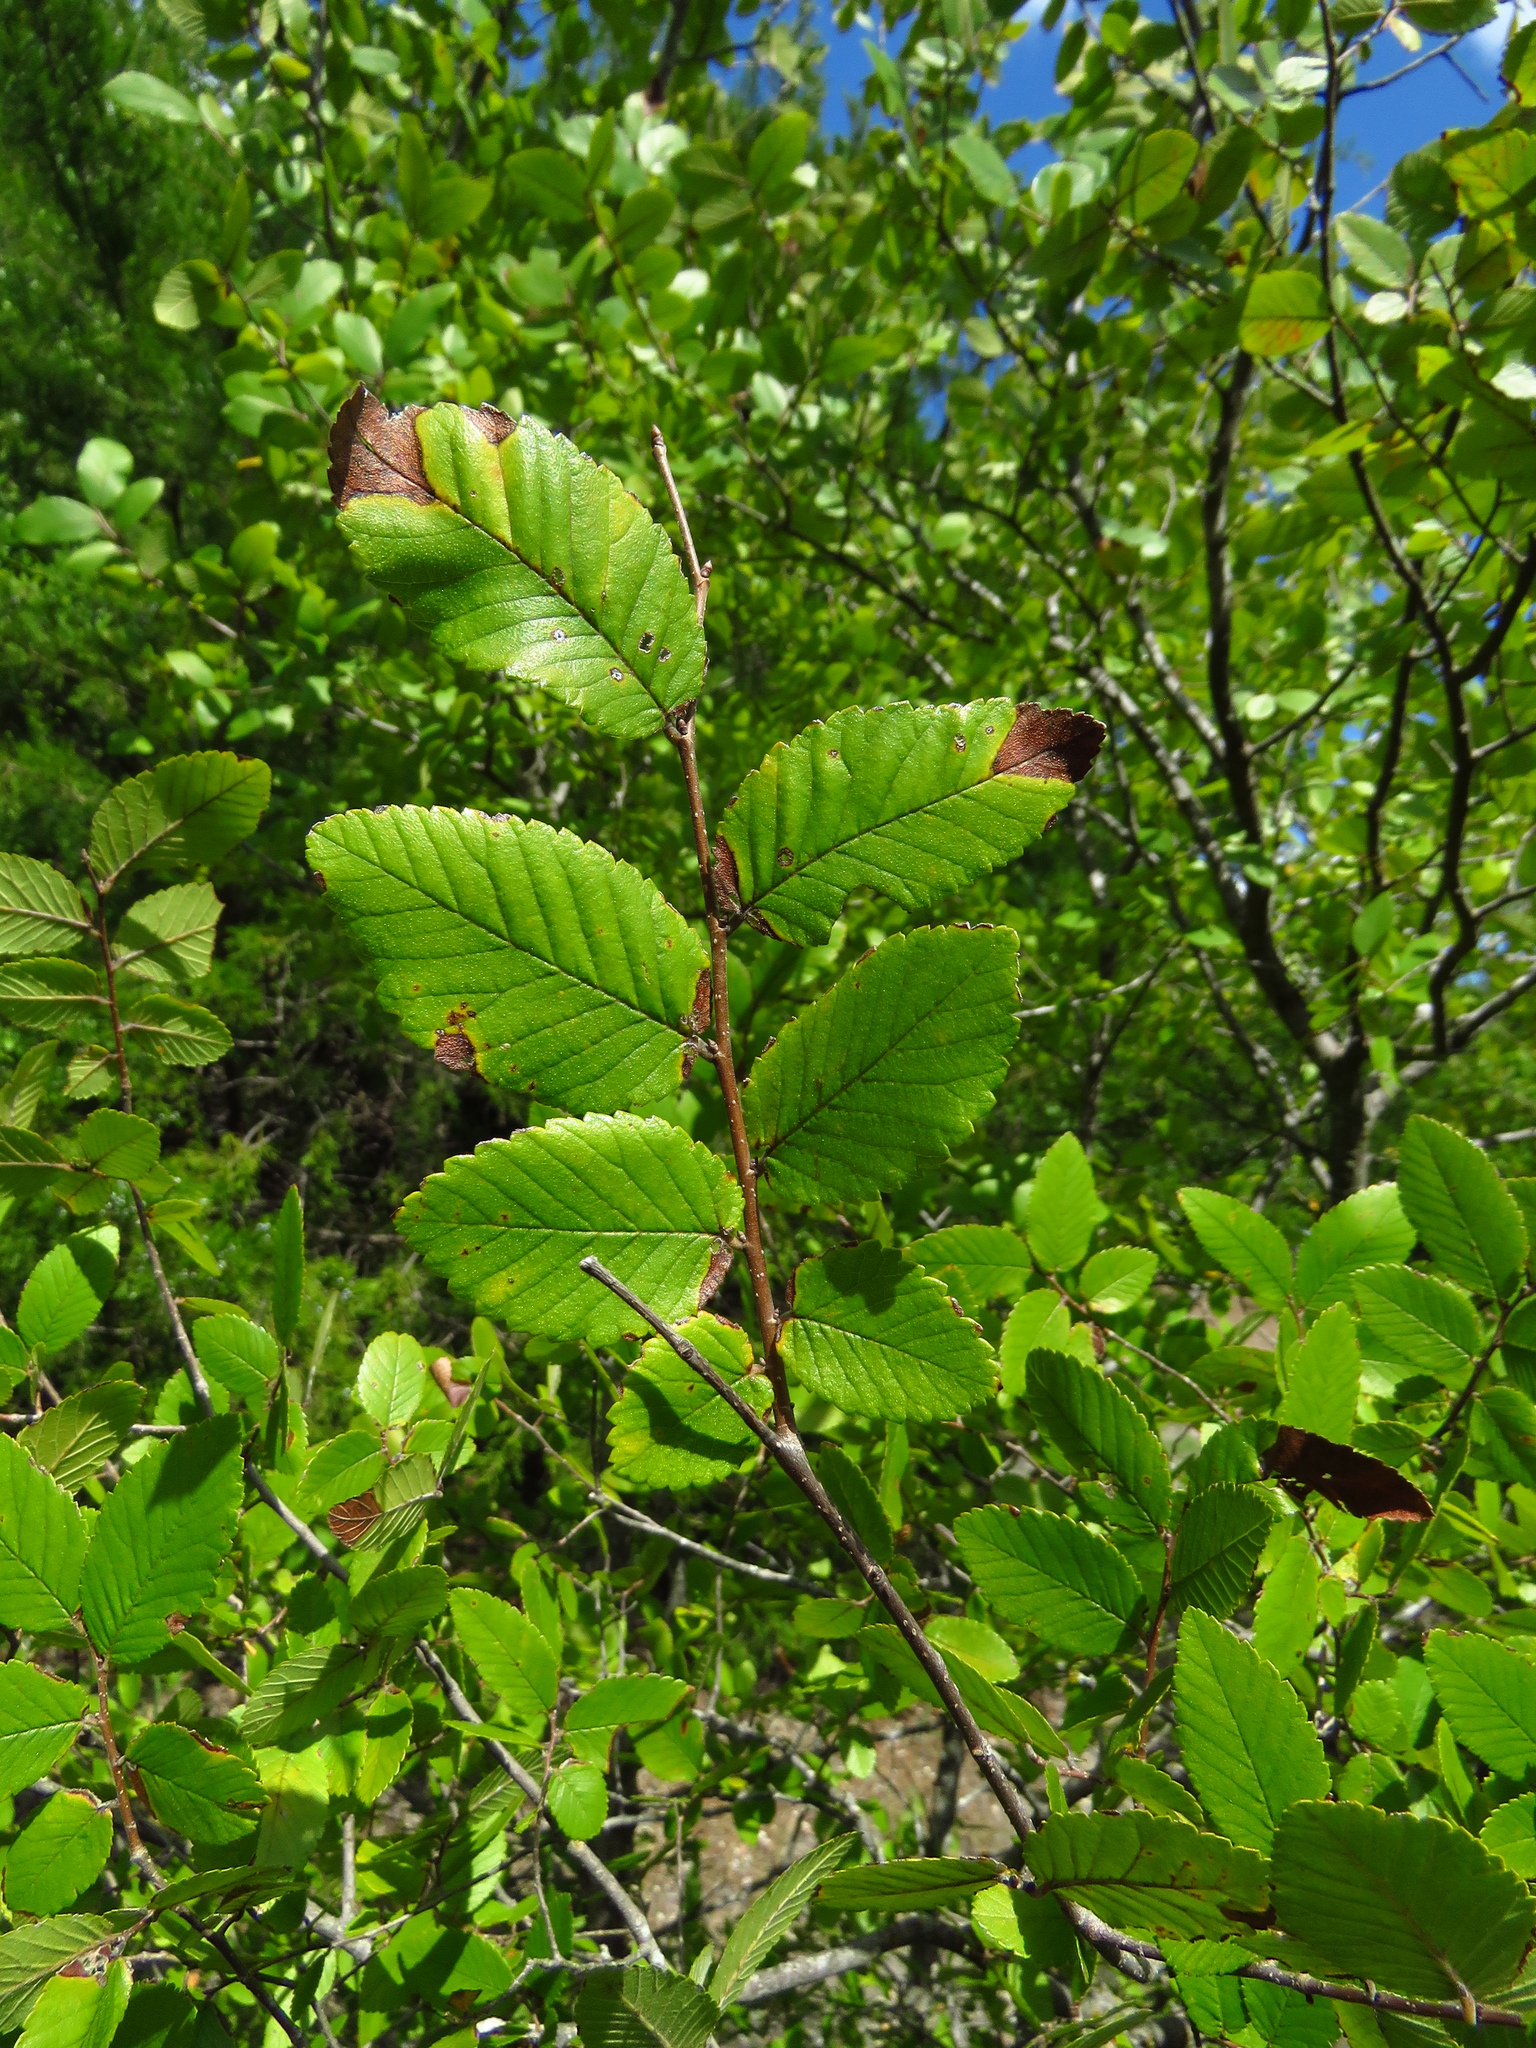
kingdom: Plantae
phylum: Tracheophyta
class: Magnoliopsida
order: Rosales
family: Ulmaceae
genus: Ulmus
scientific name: Ulmus crassifolia
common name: Basket elm
